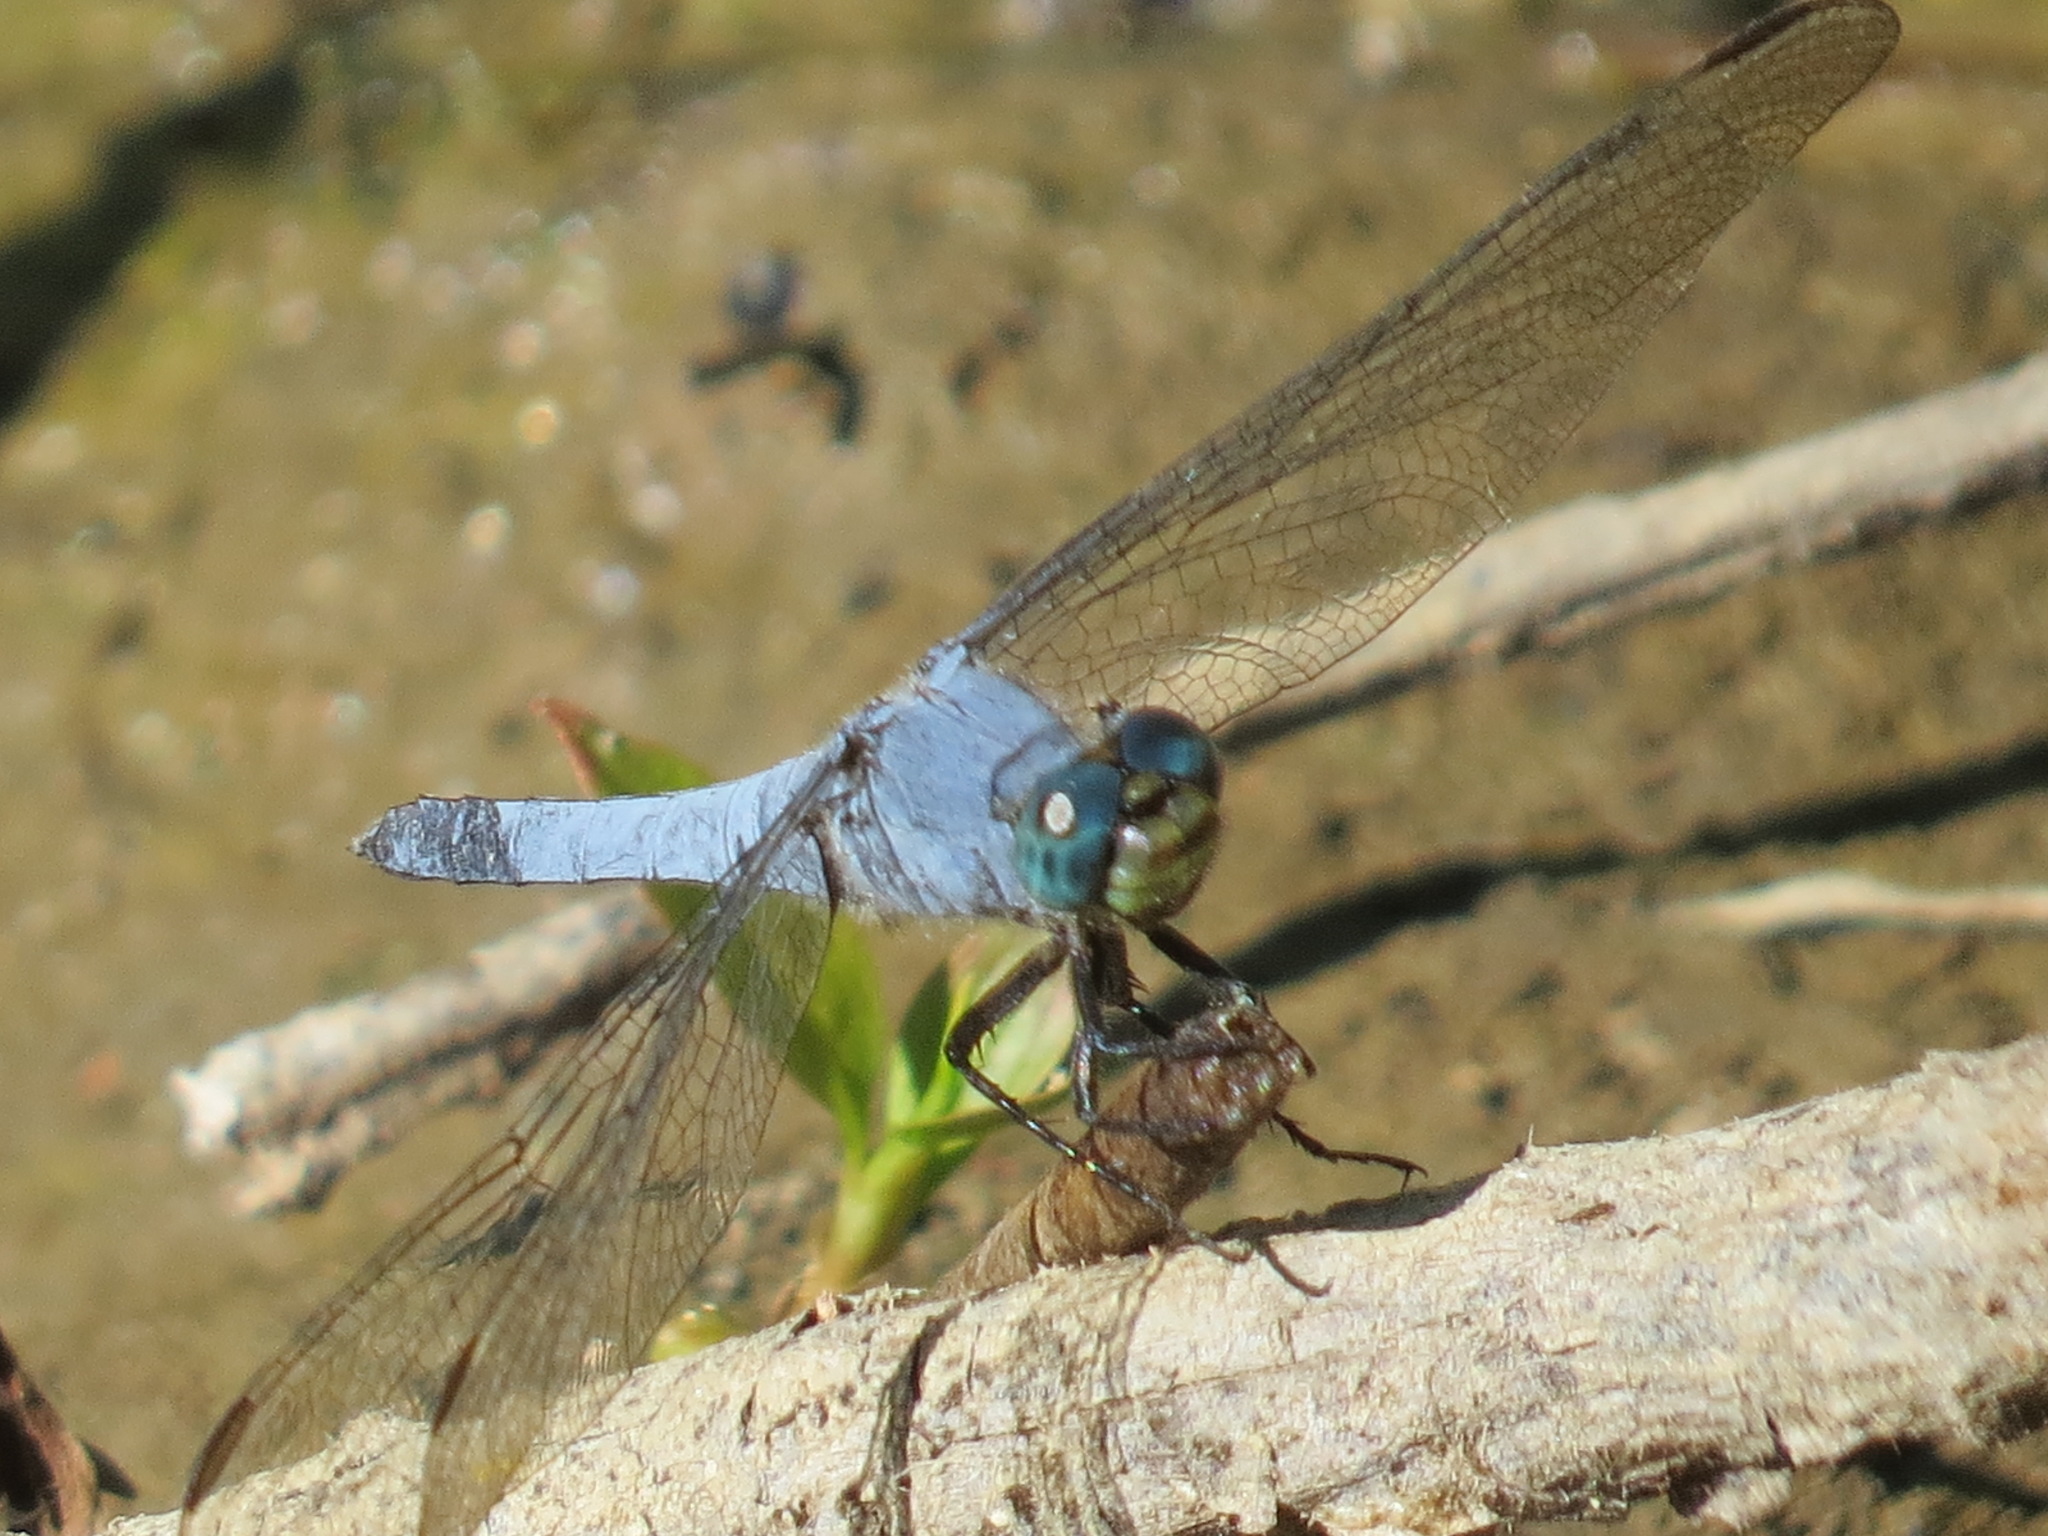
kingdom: Animalia
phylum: Arthropoda
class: Insecta
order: Odonata
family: Libellulidae
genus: Erythemis
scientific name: Erythemis collocata
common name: Western pondhawk
